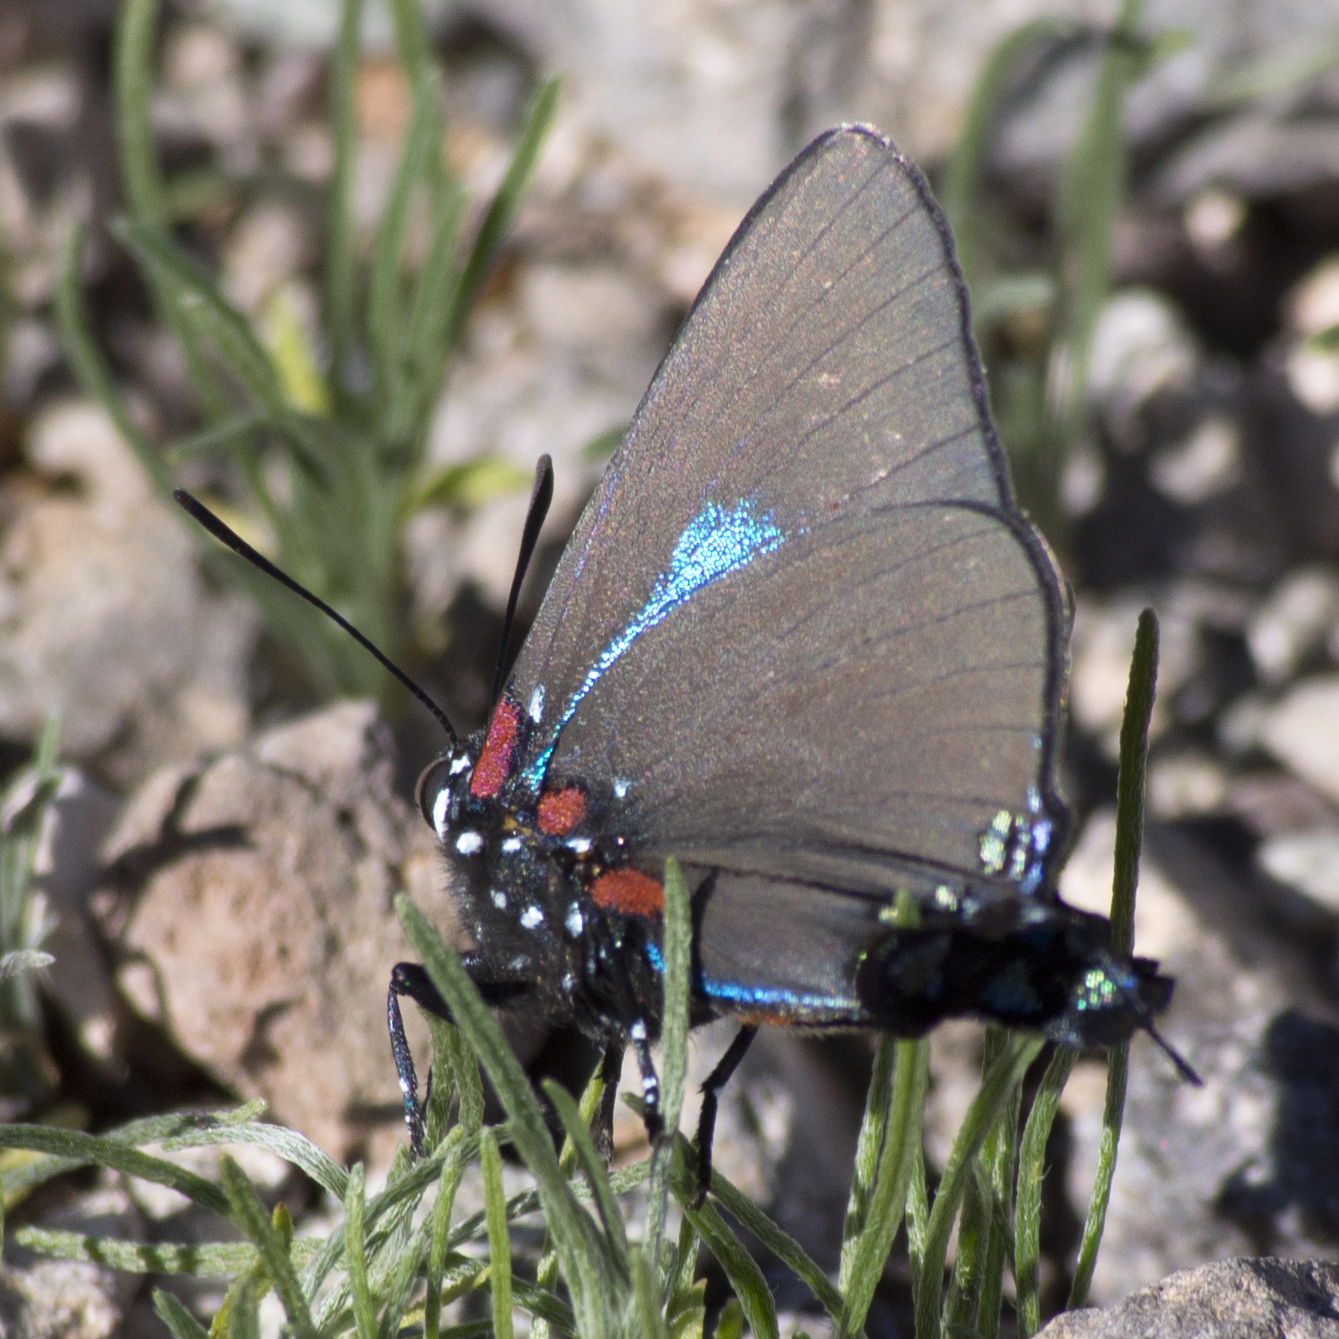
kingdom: Animalia
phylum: Arthropoda
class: Insecta
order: Lepidoptera
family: Lycaenidae
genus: Atlides
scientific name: Atlides halesus
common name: Great purple hairstreak
